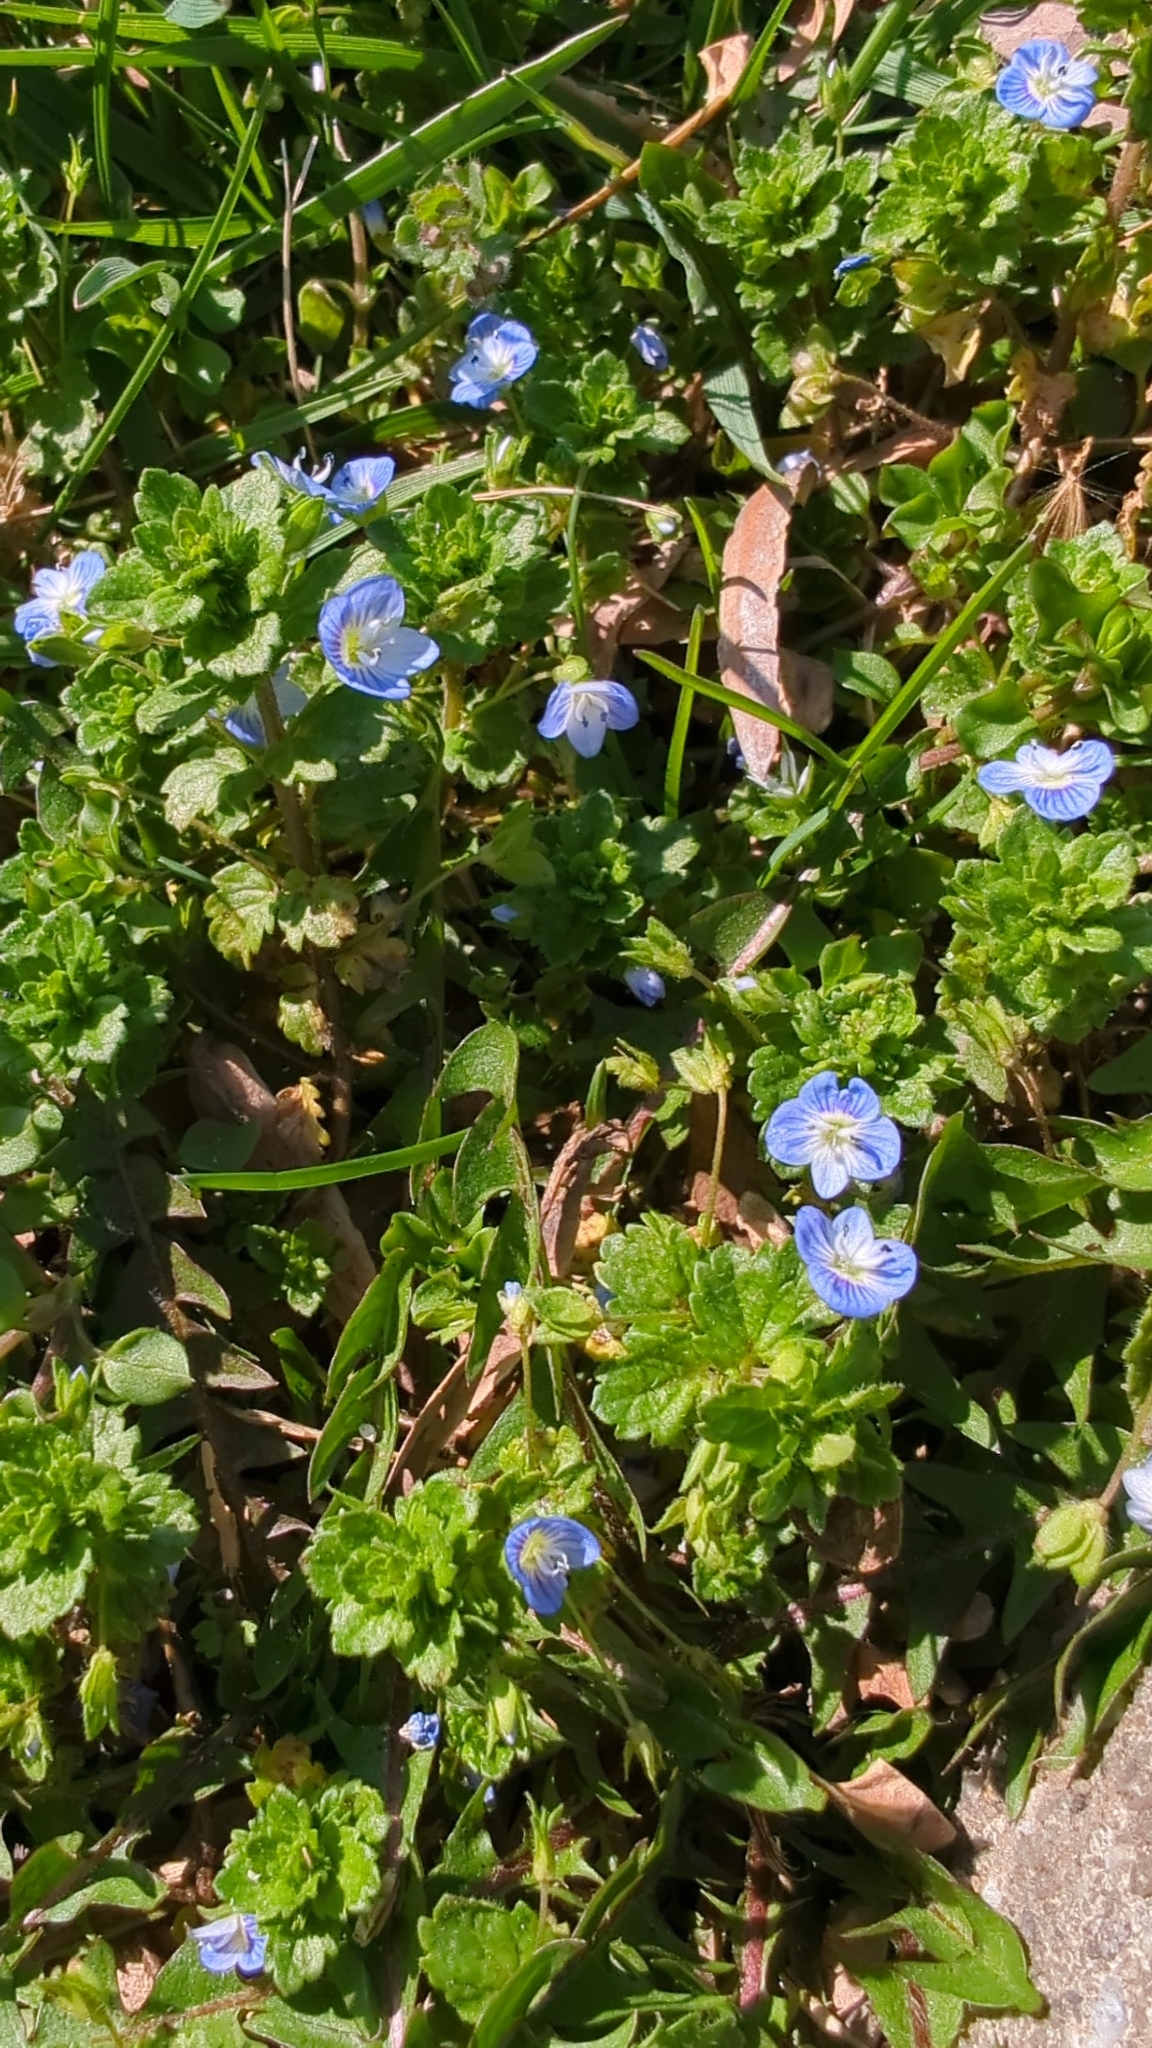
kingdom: Plantae
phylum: Tracheophyta
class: Magnoliopsida
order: Lamiales
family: Plantaginaceae
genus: Veronica
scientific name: Veronica persica
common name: Common field-speedwell
